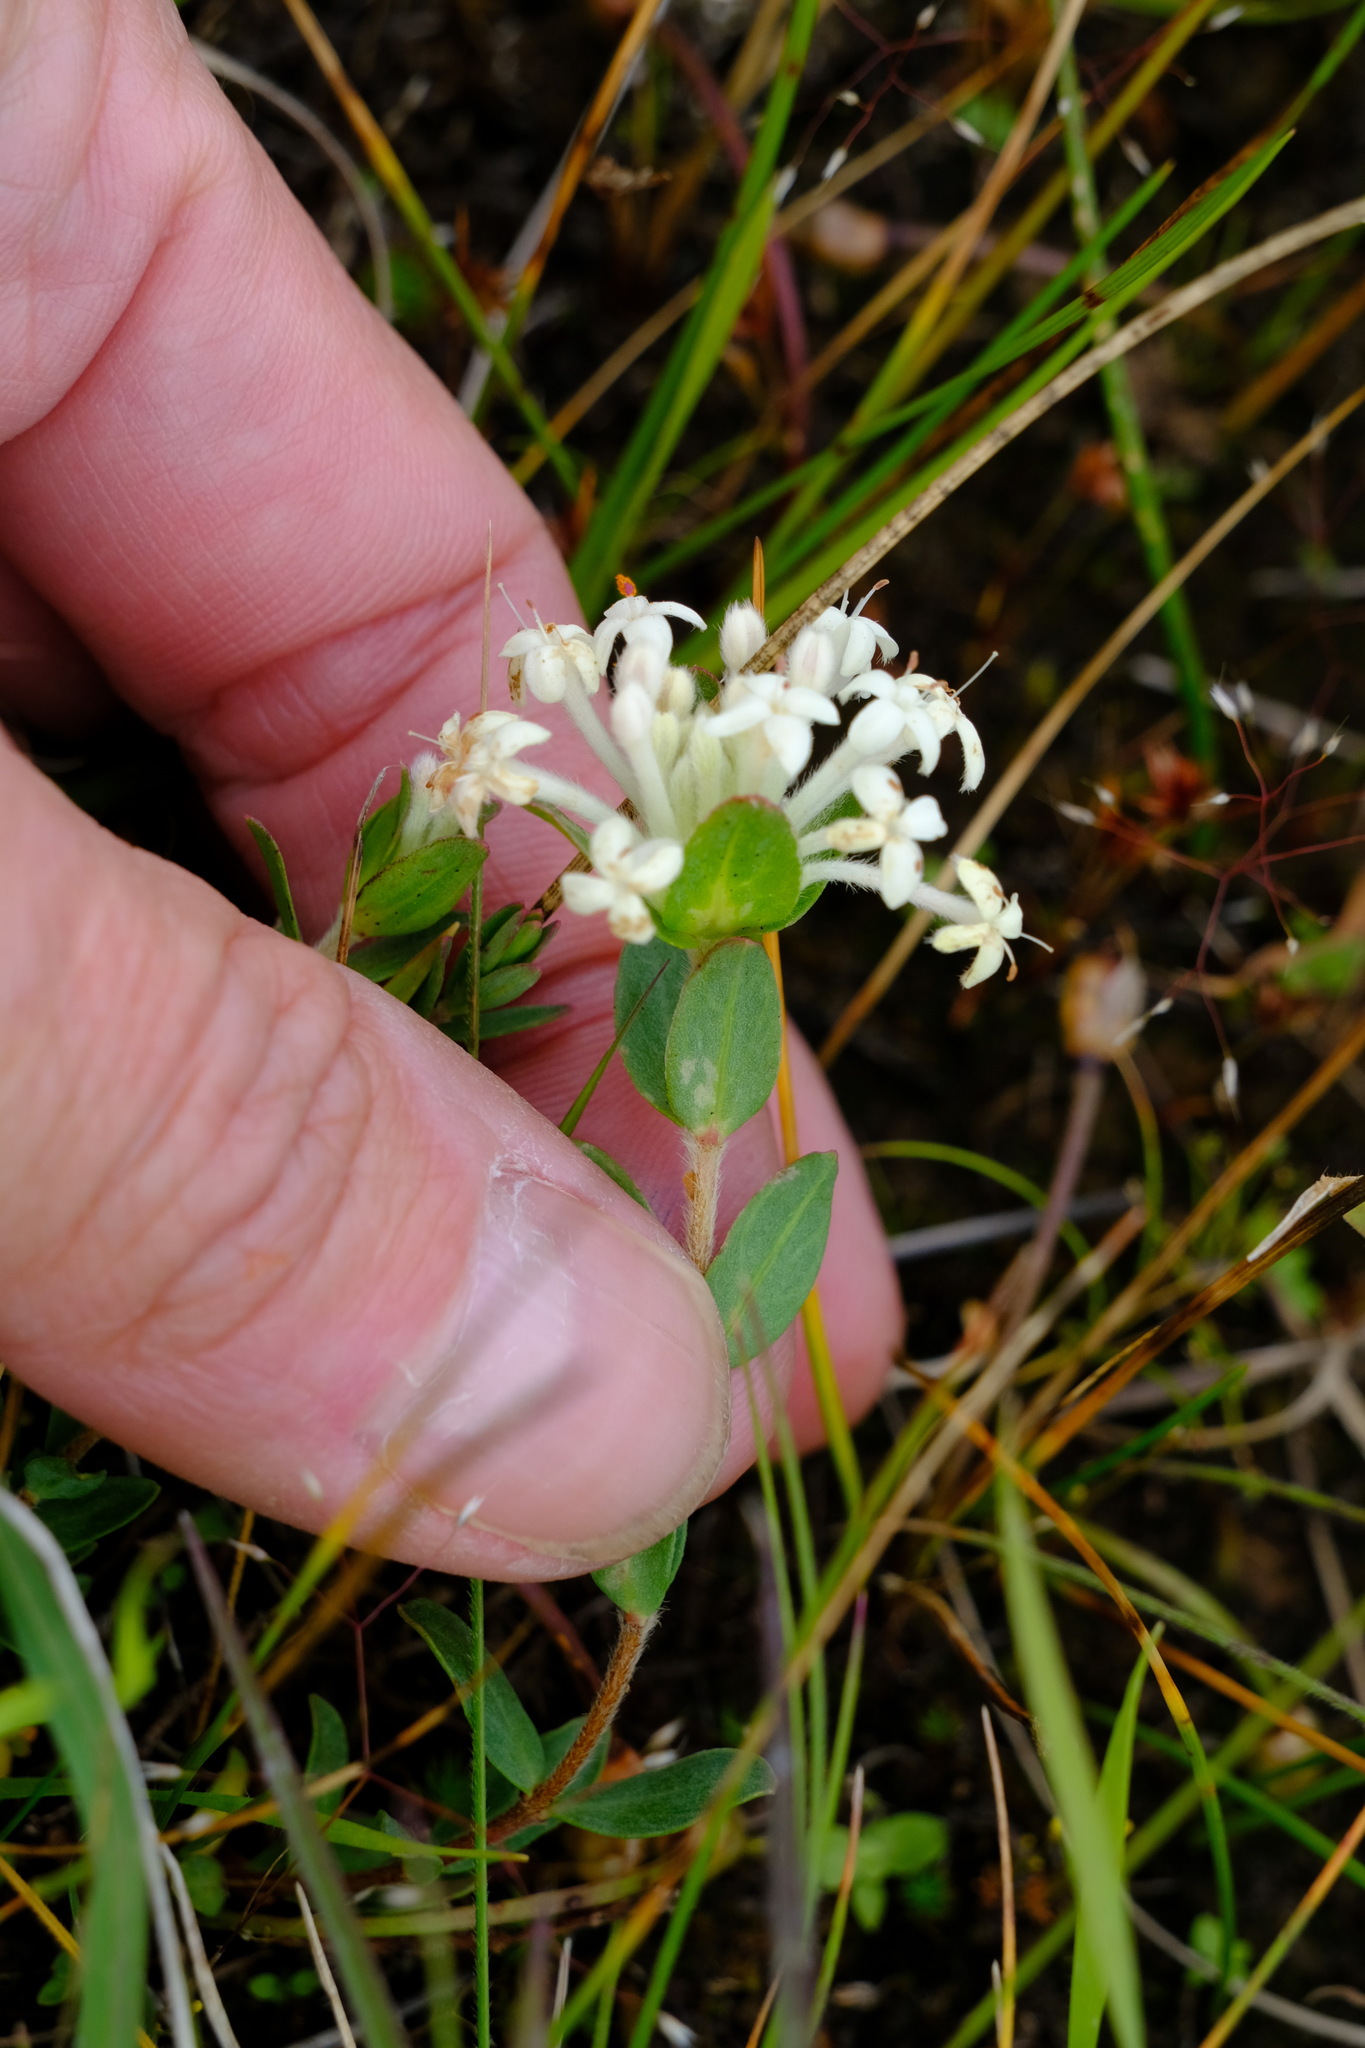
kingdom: Plantae
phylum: Tracheophyta
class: Magnoliopsida
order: Malvales
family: Thymelaeaceae
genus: Pimelea
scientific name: Pimelea humilis
